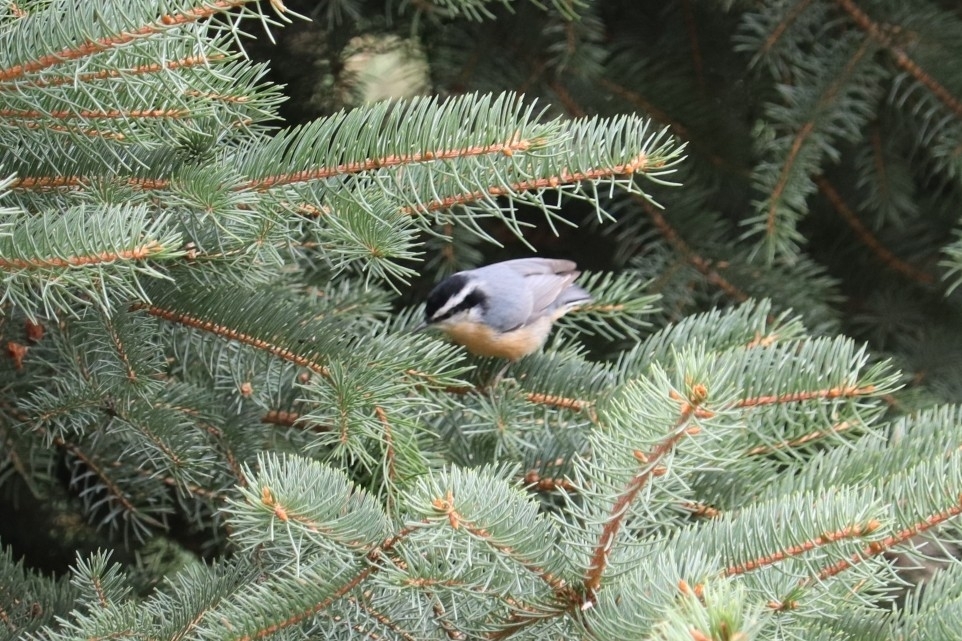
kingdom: Animalia
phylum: Chordata
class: Aves
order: Passeriformes
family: Sittidae
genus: Sitta
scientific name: Sitta canadensis
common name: Red-breasted nuthatch
